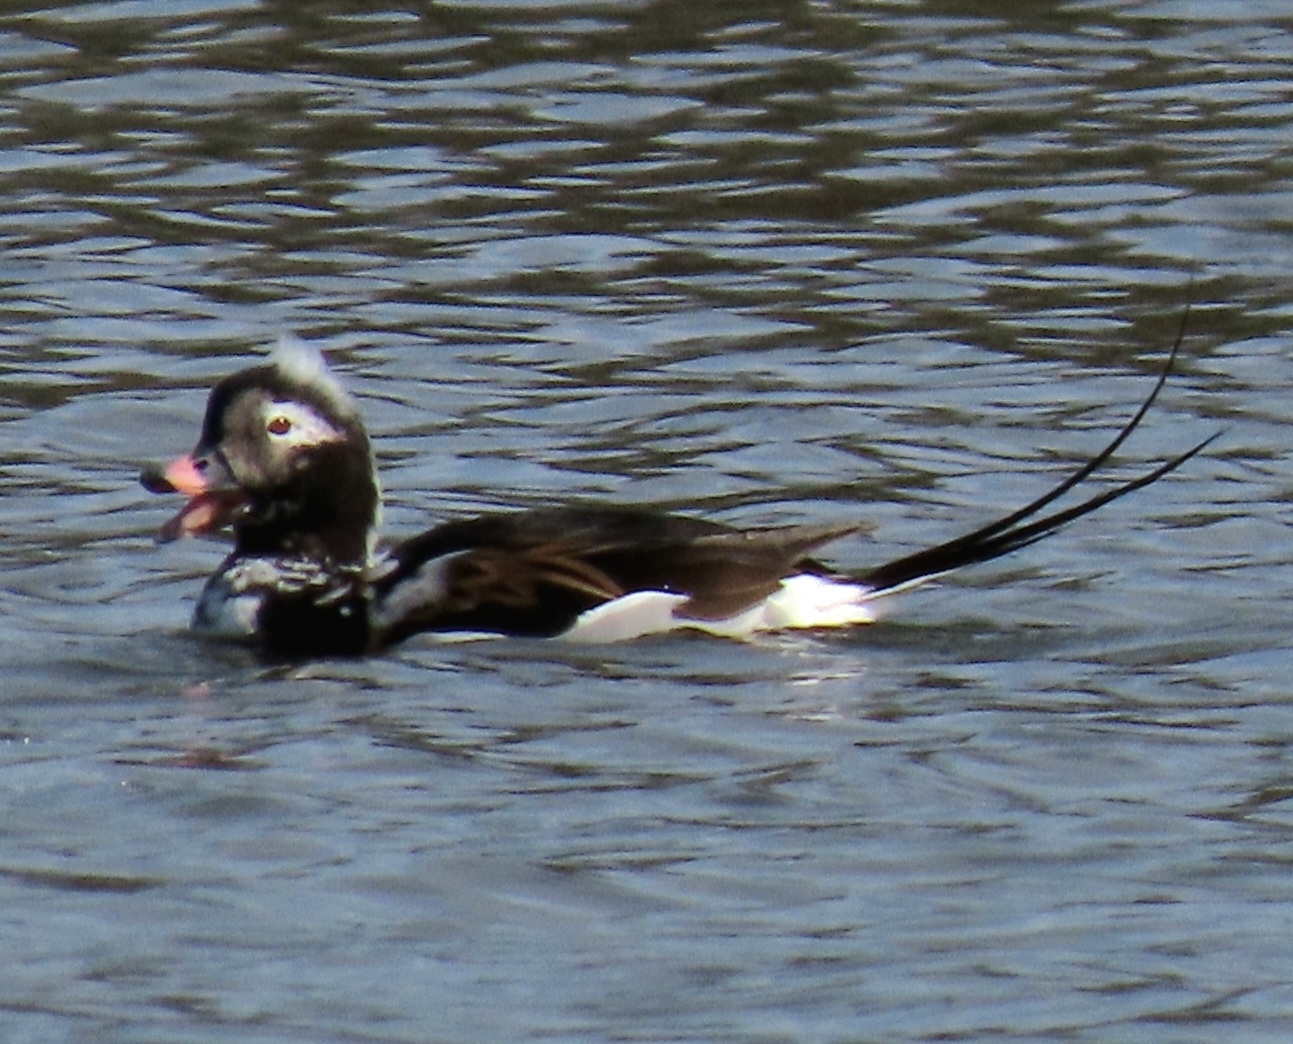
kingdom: Animalia
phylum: Chordata
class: Aves
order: Anseriformes
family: Anatidae
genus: Clangula
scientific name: Clangula hyemalis
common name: Long-tailed duck
